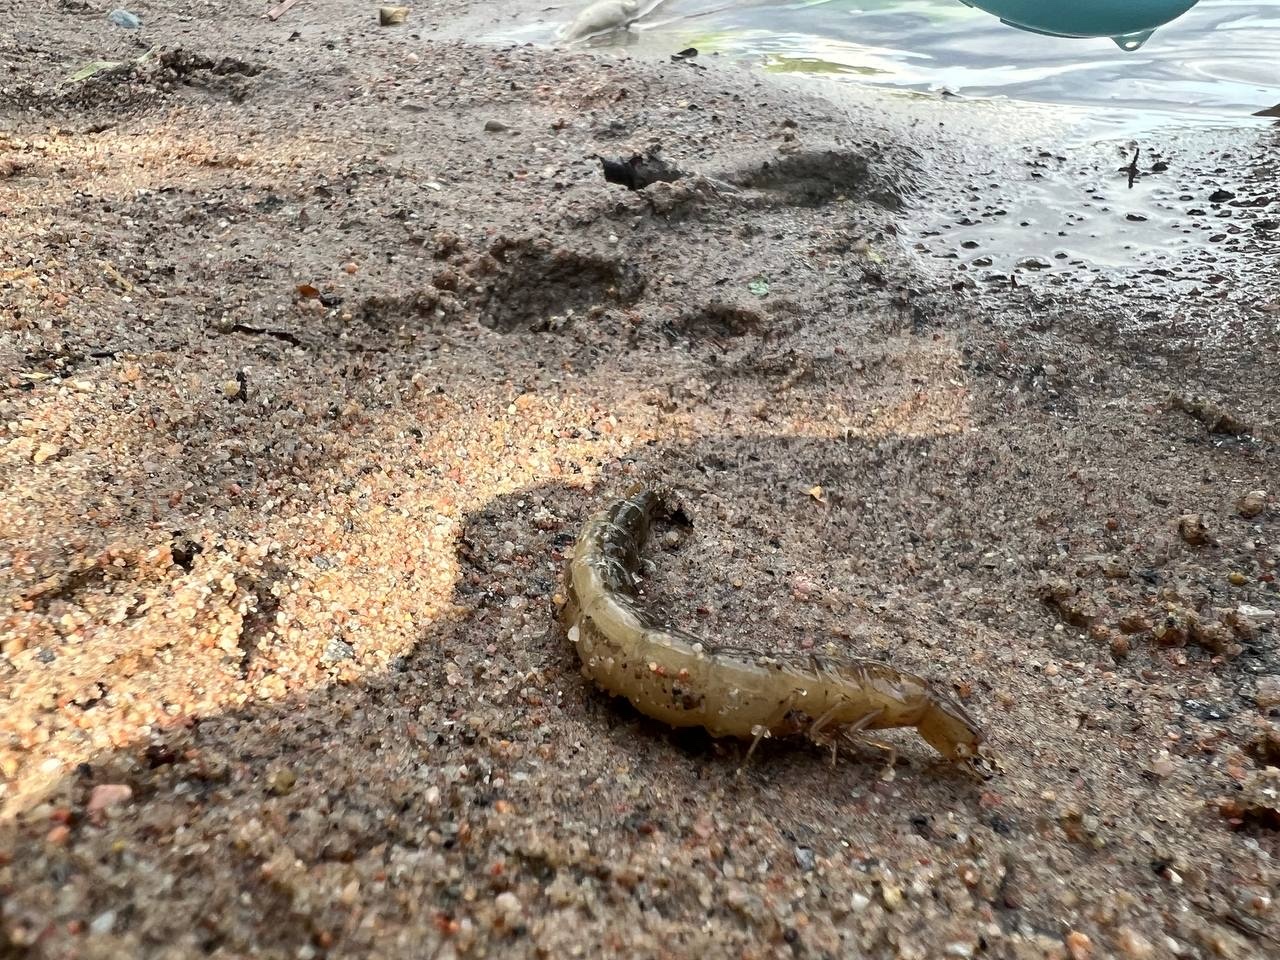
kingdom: Animalia
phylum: Arthropoda
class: Insecta
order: Coleoptera
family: Dytiscidae
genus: Cybister
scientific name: Cybister lateralimarginalis
